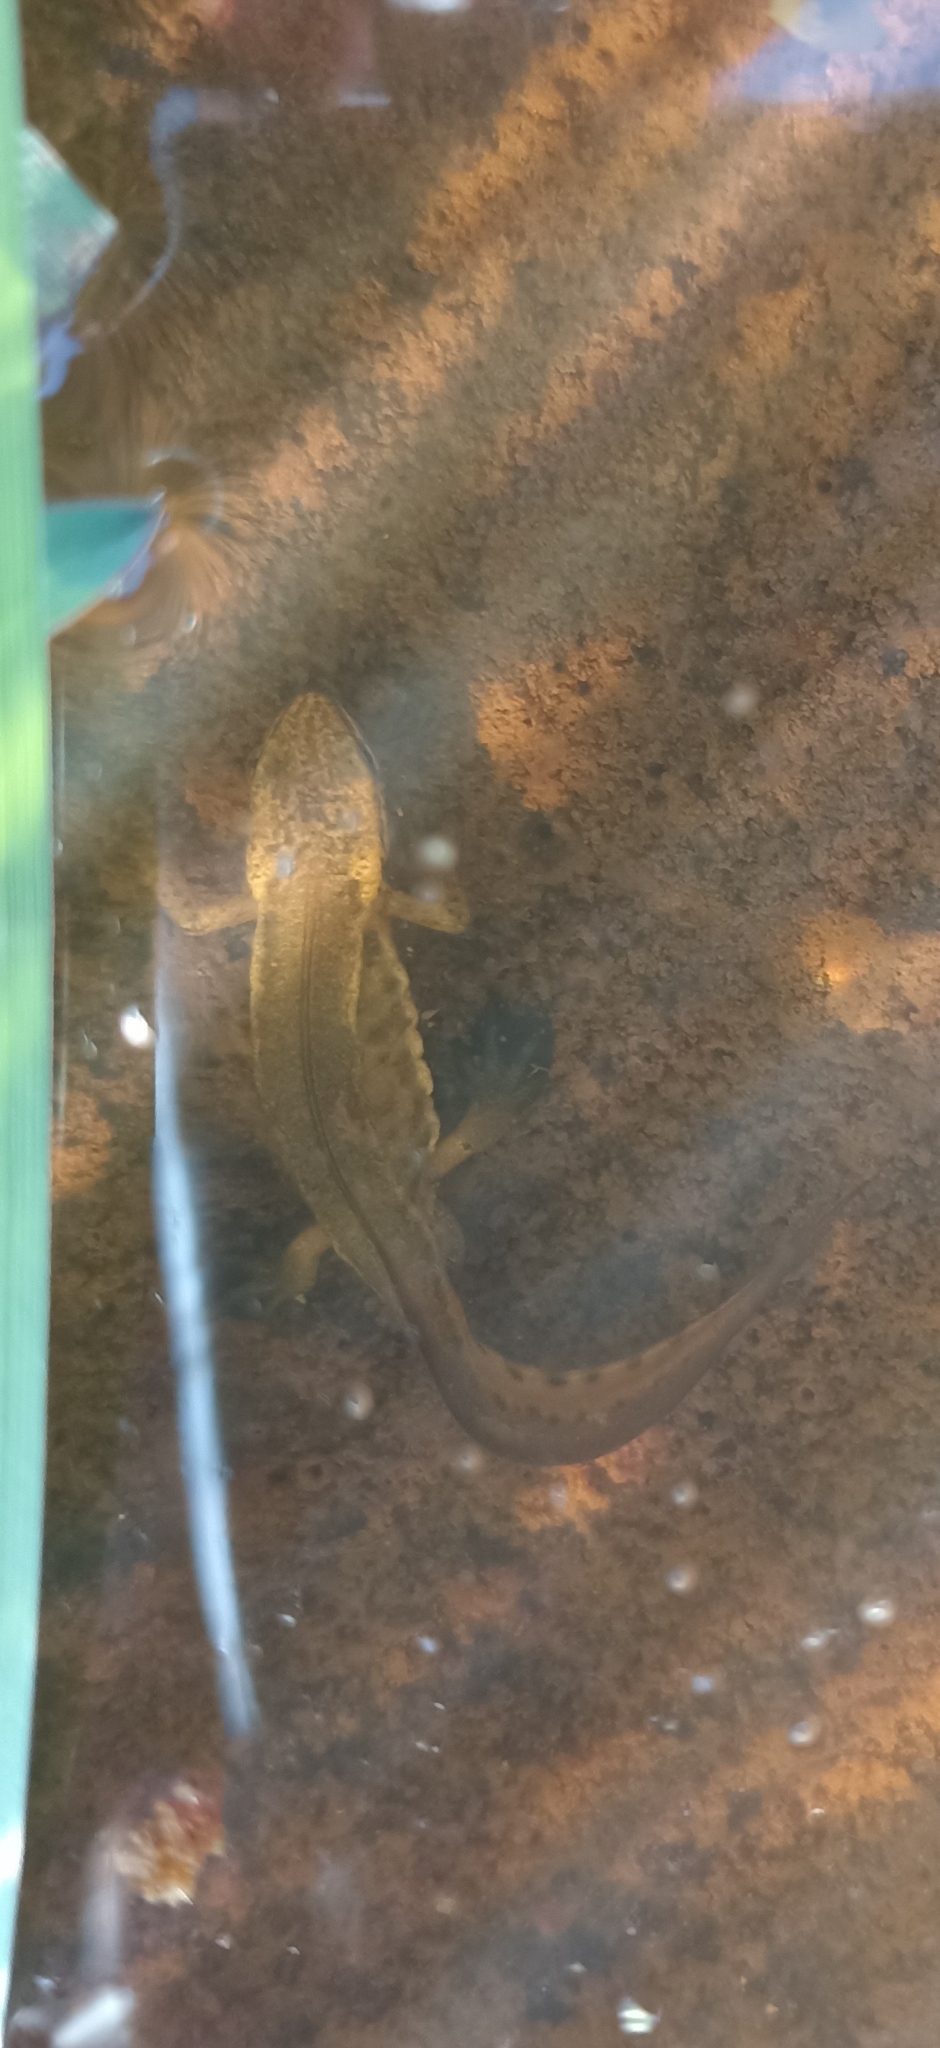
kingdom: Animalia
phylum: Chordata
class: Amphibia
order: Caudata
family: Salamandridae
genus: Lissotriton
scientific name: Lissotriton helveticus
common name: Palmate newt
